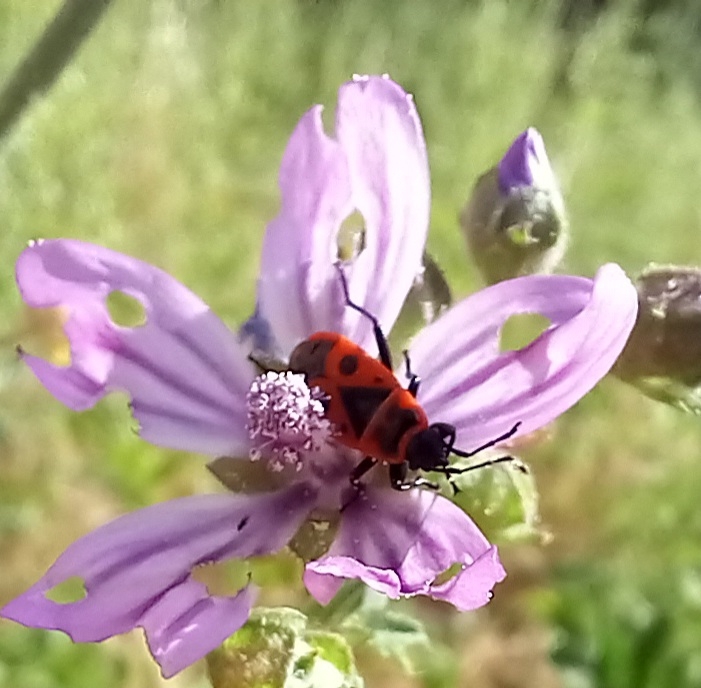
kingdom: Animalia
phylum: Arthropoda
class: Insecta
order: Hemiptera
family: Pyrrhocoridae
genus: Pyrrhocoris
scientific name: Pyrrhocoris apterus
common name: Firebug
